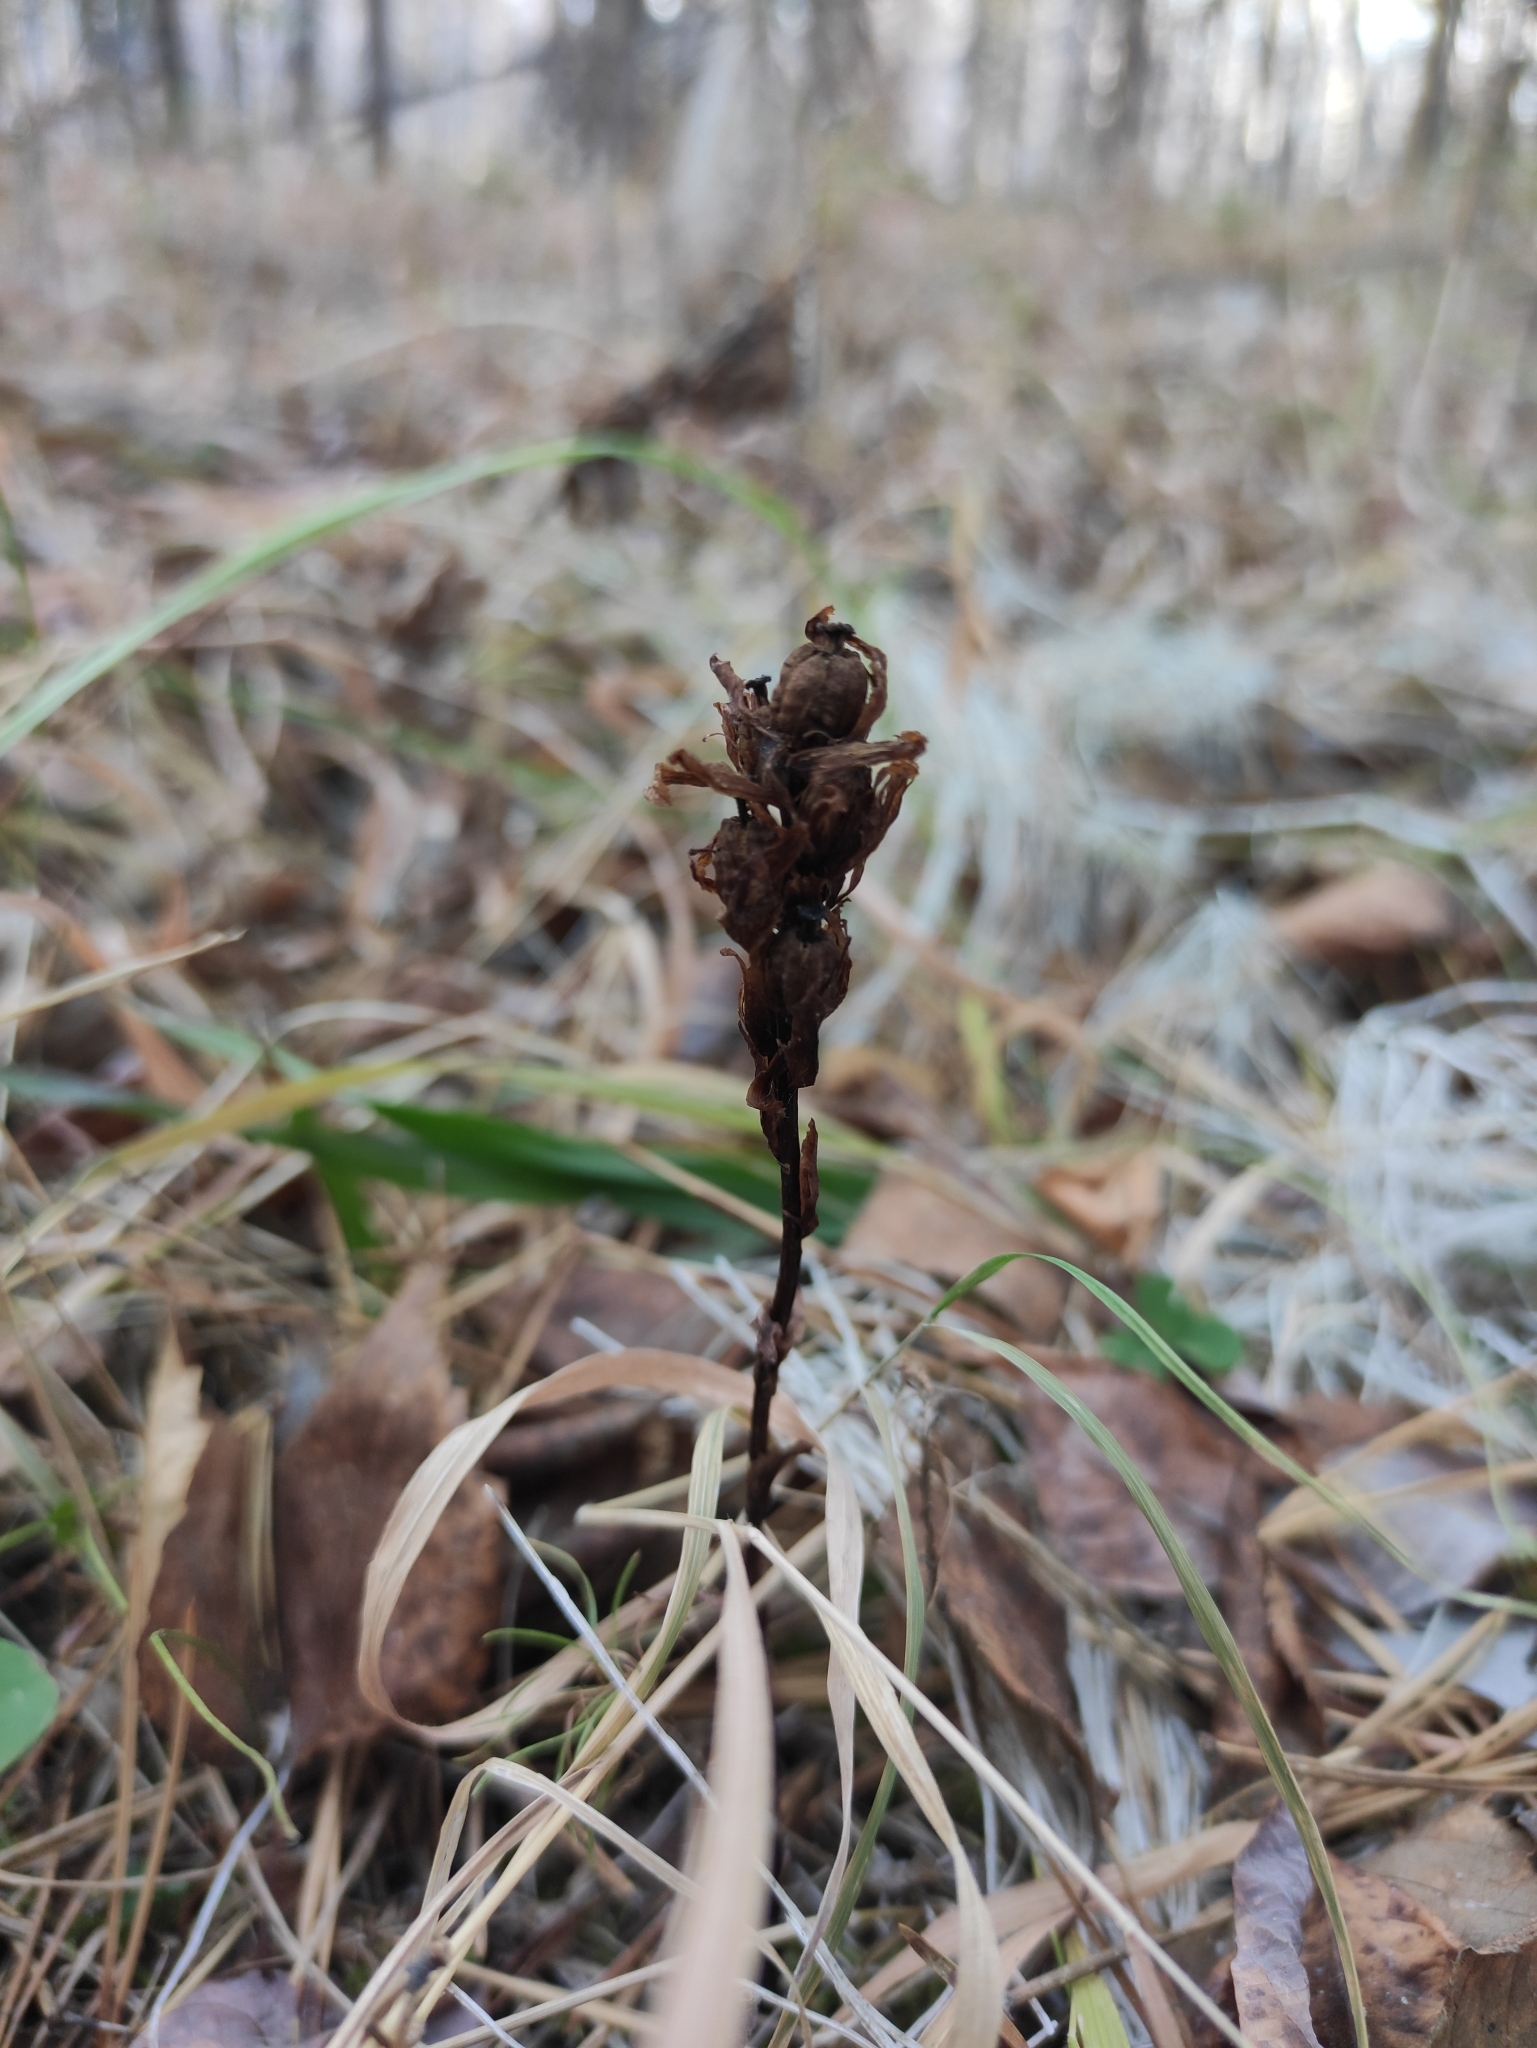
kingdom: Plantae
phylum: Tracheophyta
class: Magnoliopsida
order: Ericales
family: Ericaceae
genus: Hypopitys
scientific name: Hypopitys monotropa
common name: Yellow bird's-nest
